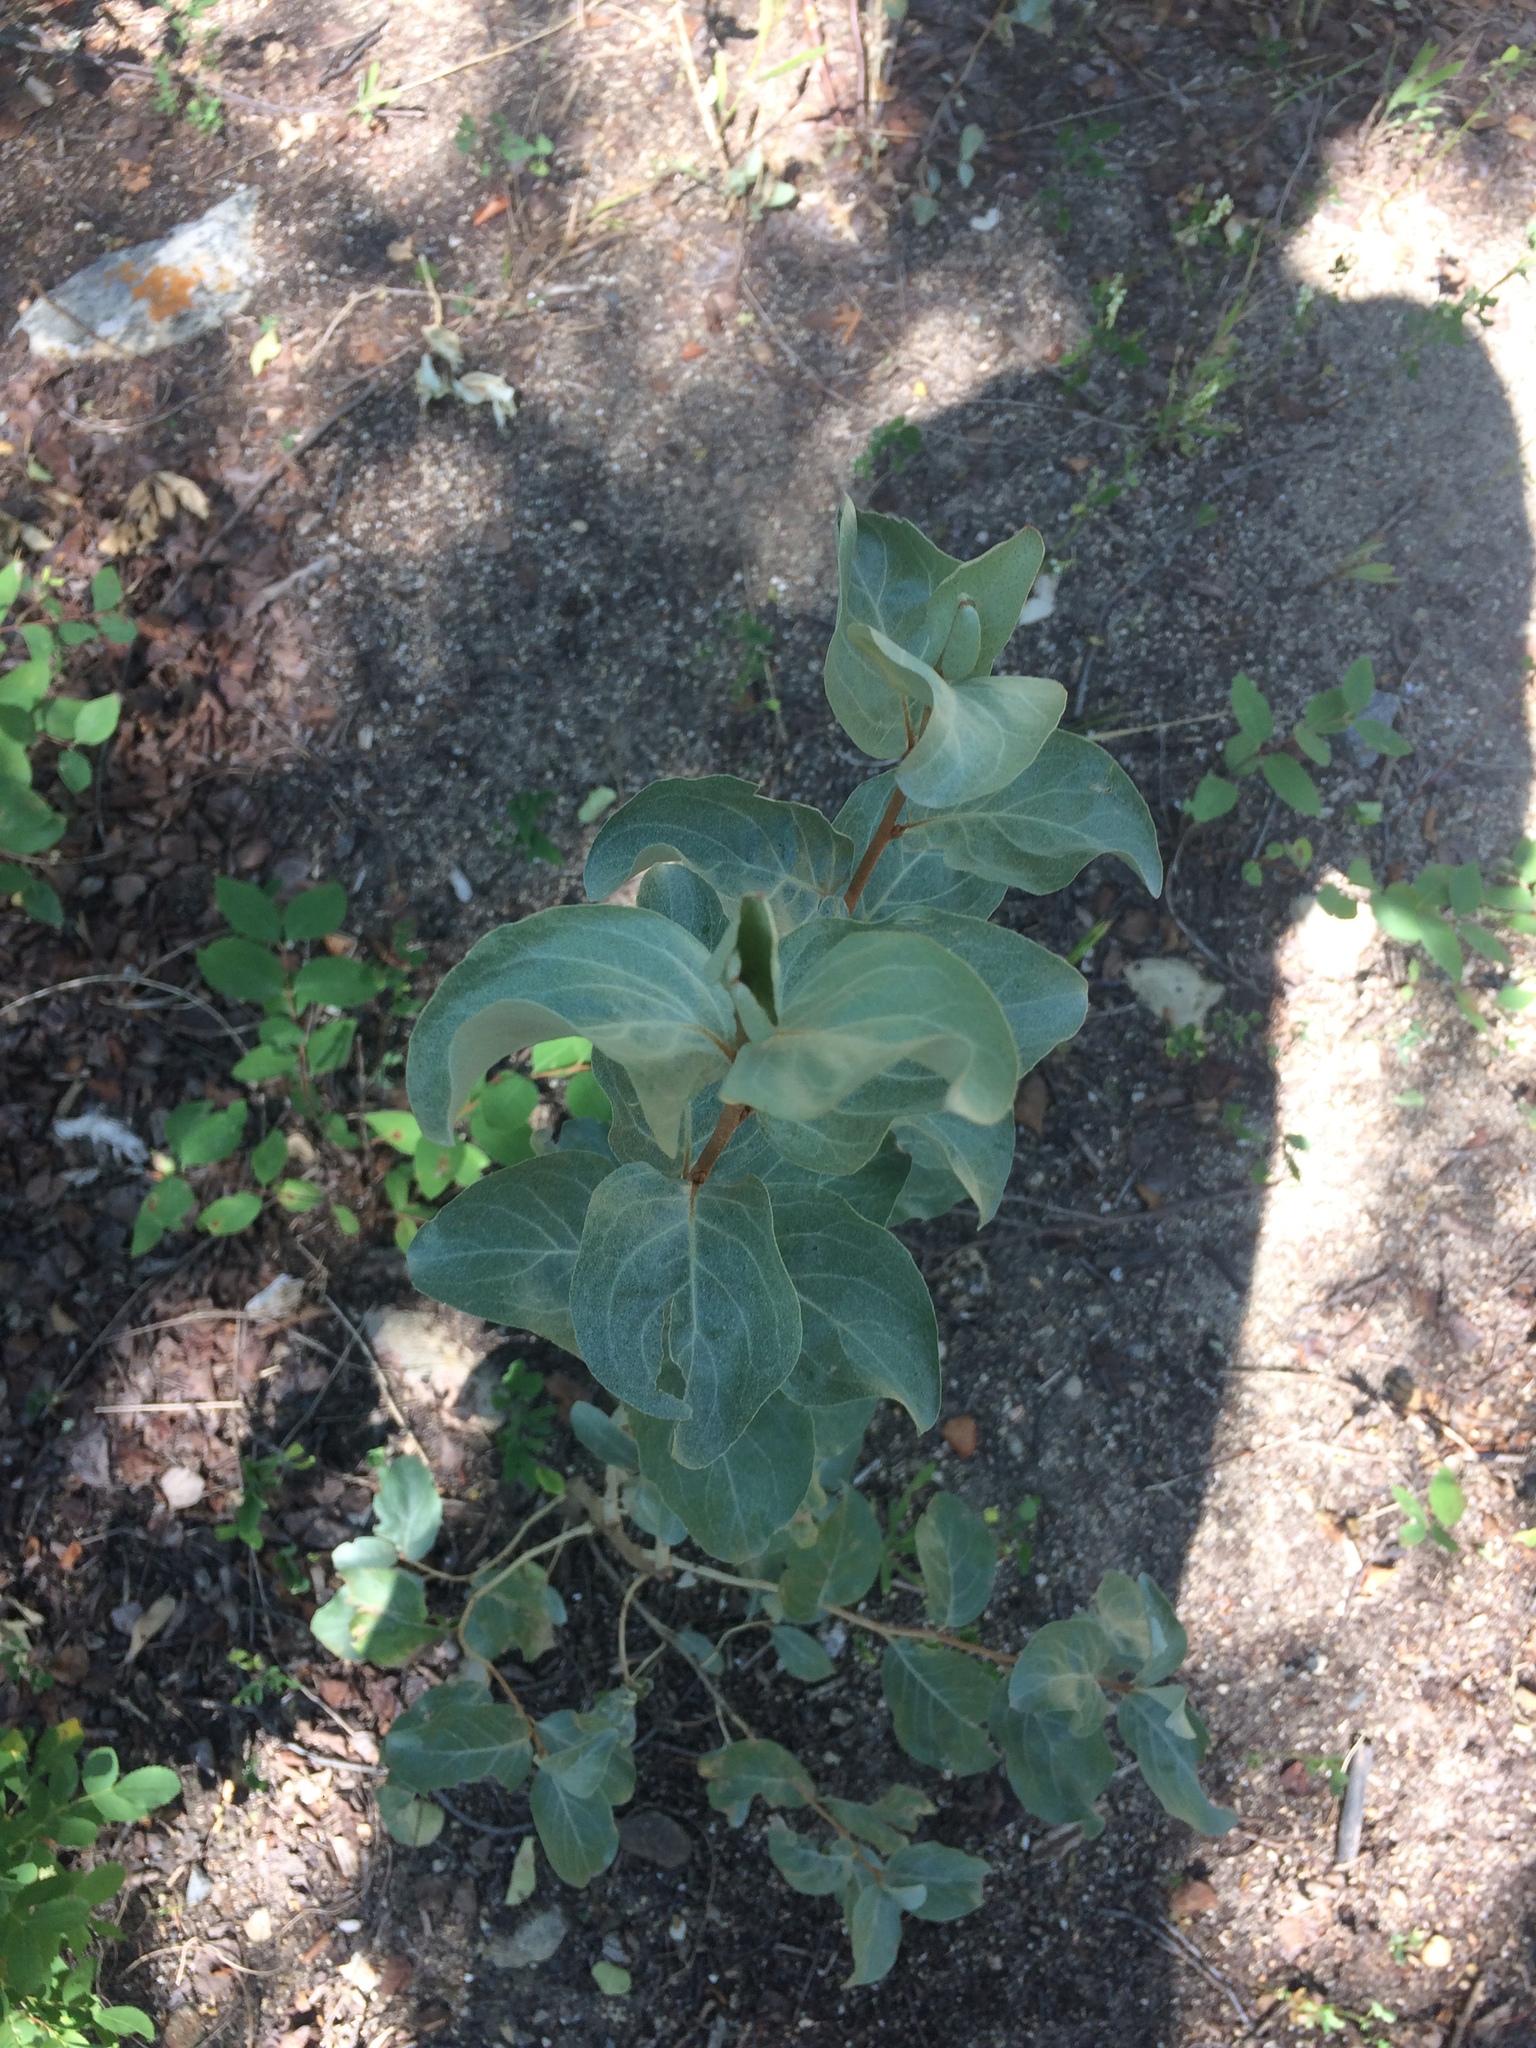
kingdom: Plantae
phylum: Tracheophyta
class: Magnoliopsida
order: Rosales
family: Elaeagnaceae
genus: Elaeagnus
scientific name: Elaeagnus commutata
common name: Silverberry
